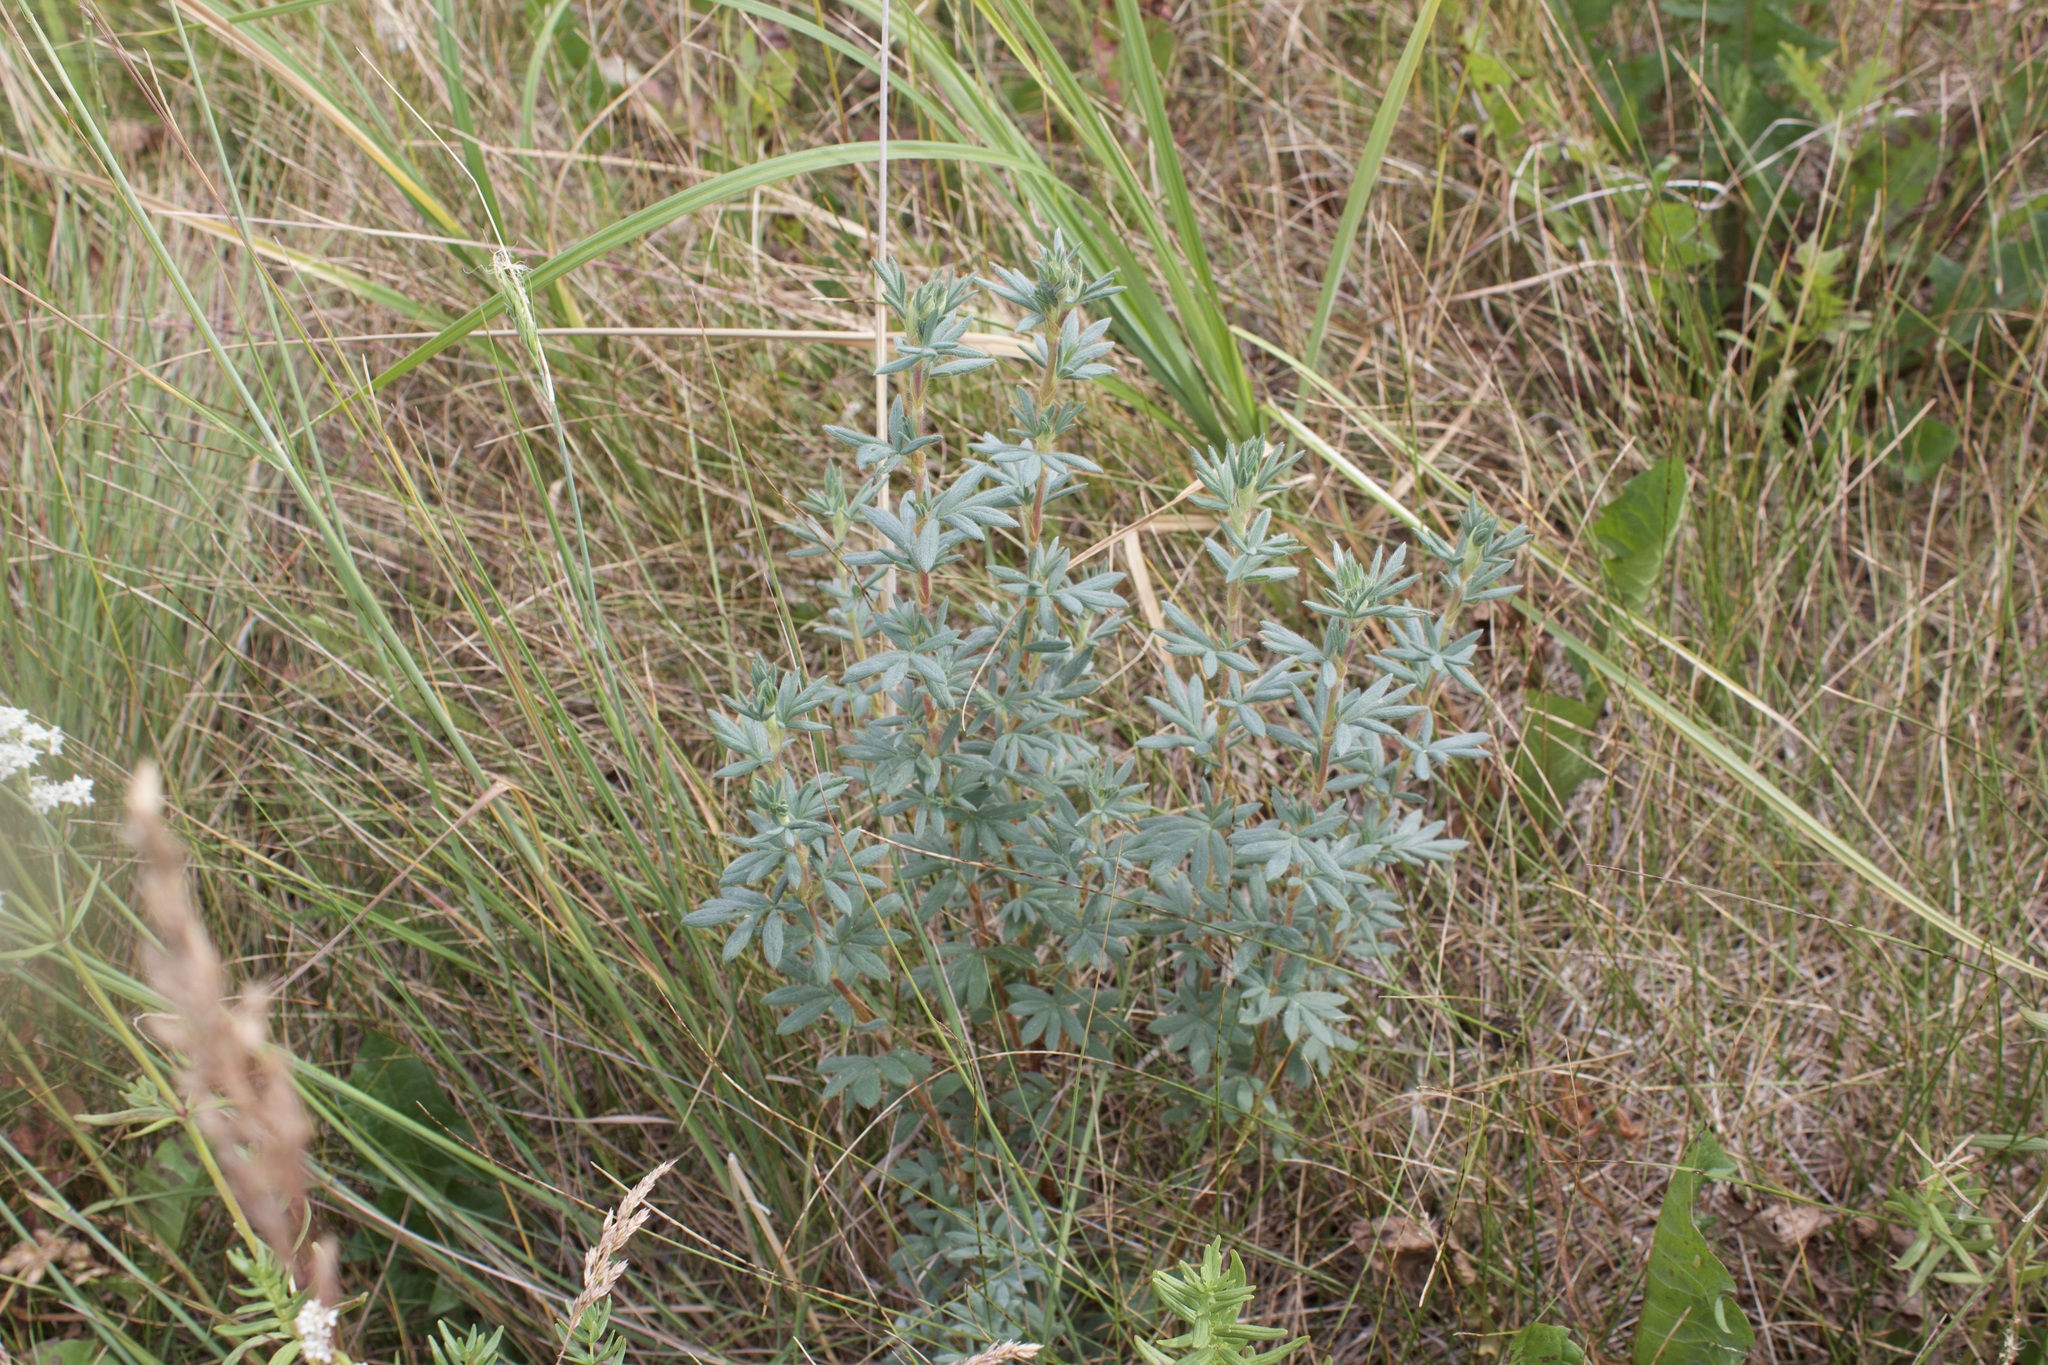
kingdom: Plantae
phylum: Tracheophyta
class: Magnoliopsida
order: Rosales
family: Rosaceae
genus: Dasiphora
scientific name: Dasiphora fruticosa
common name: Shrubby cinquefoil
